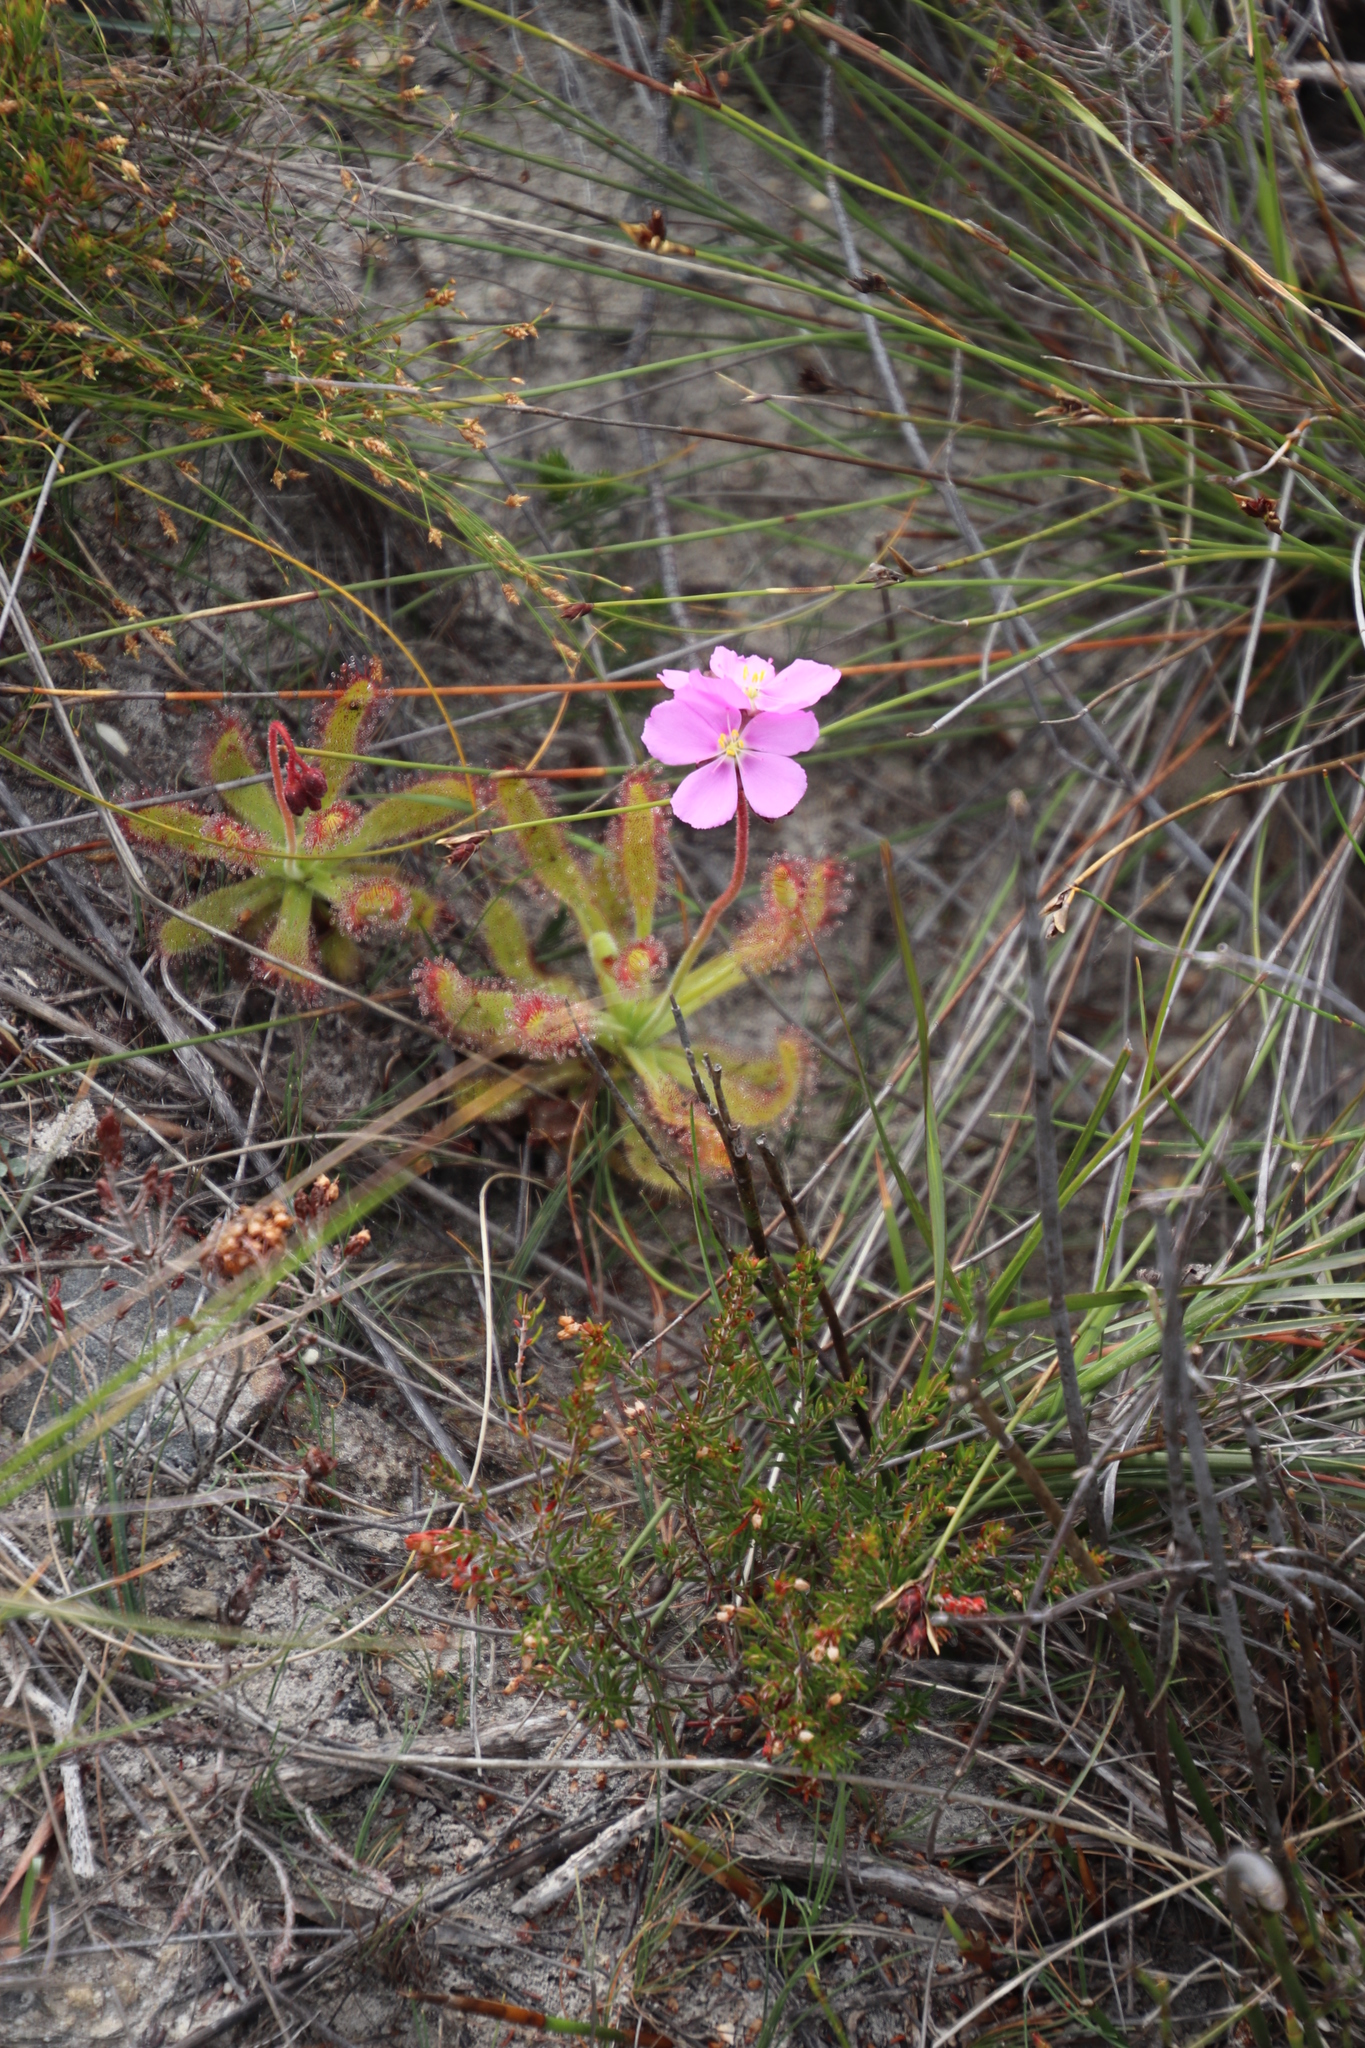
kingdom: Plantae
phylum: Tracheophyta
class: Magnoliopsida
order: Caryophyllales
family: Droseraceae
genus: Drosera
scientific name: Drosera hilaris
